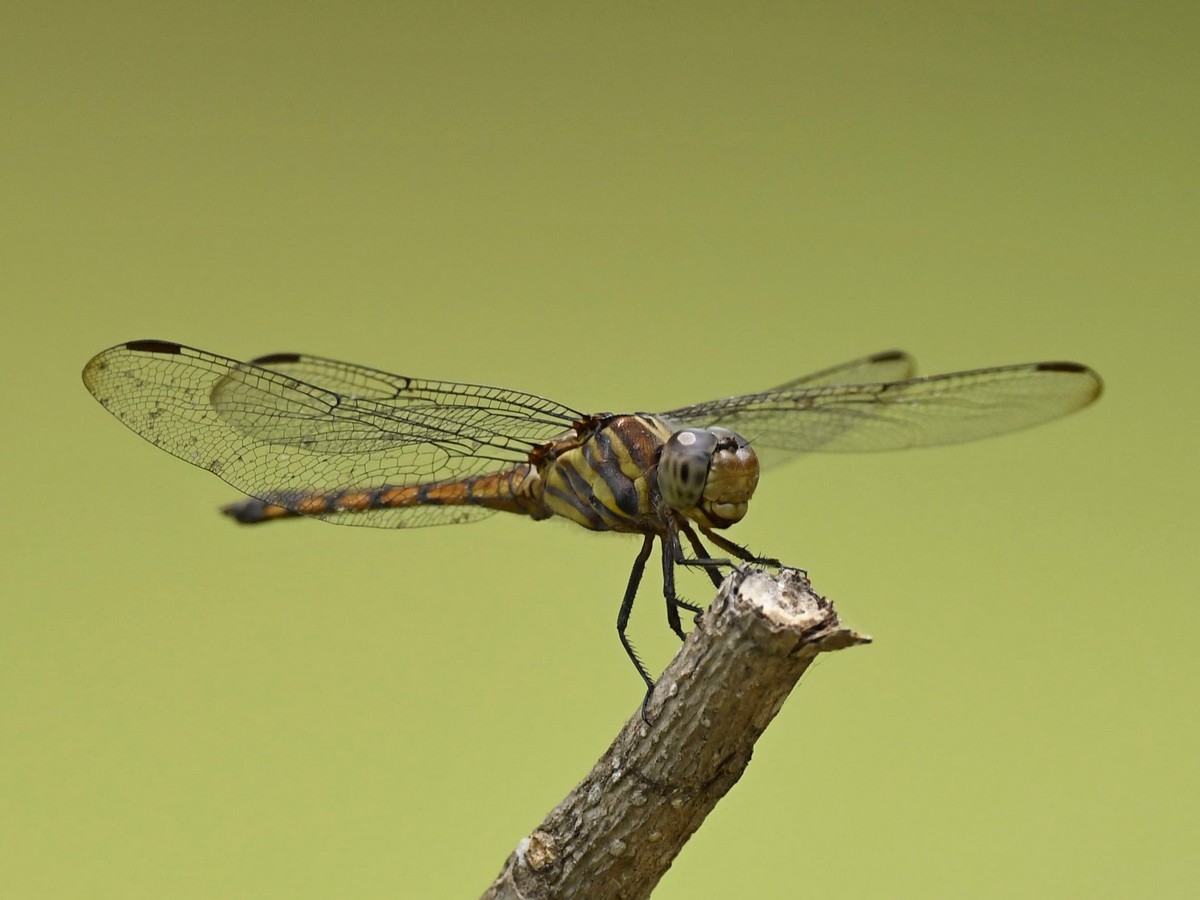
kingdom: Animalia
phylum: Arthropoda
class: Insecta
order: Odonata
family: Libellulidae
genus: Potamarcha
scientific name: Potamarcha congener
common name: Blue chaser
